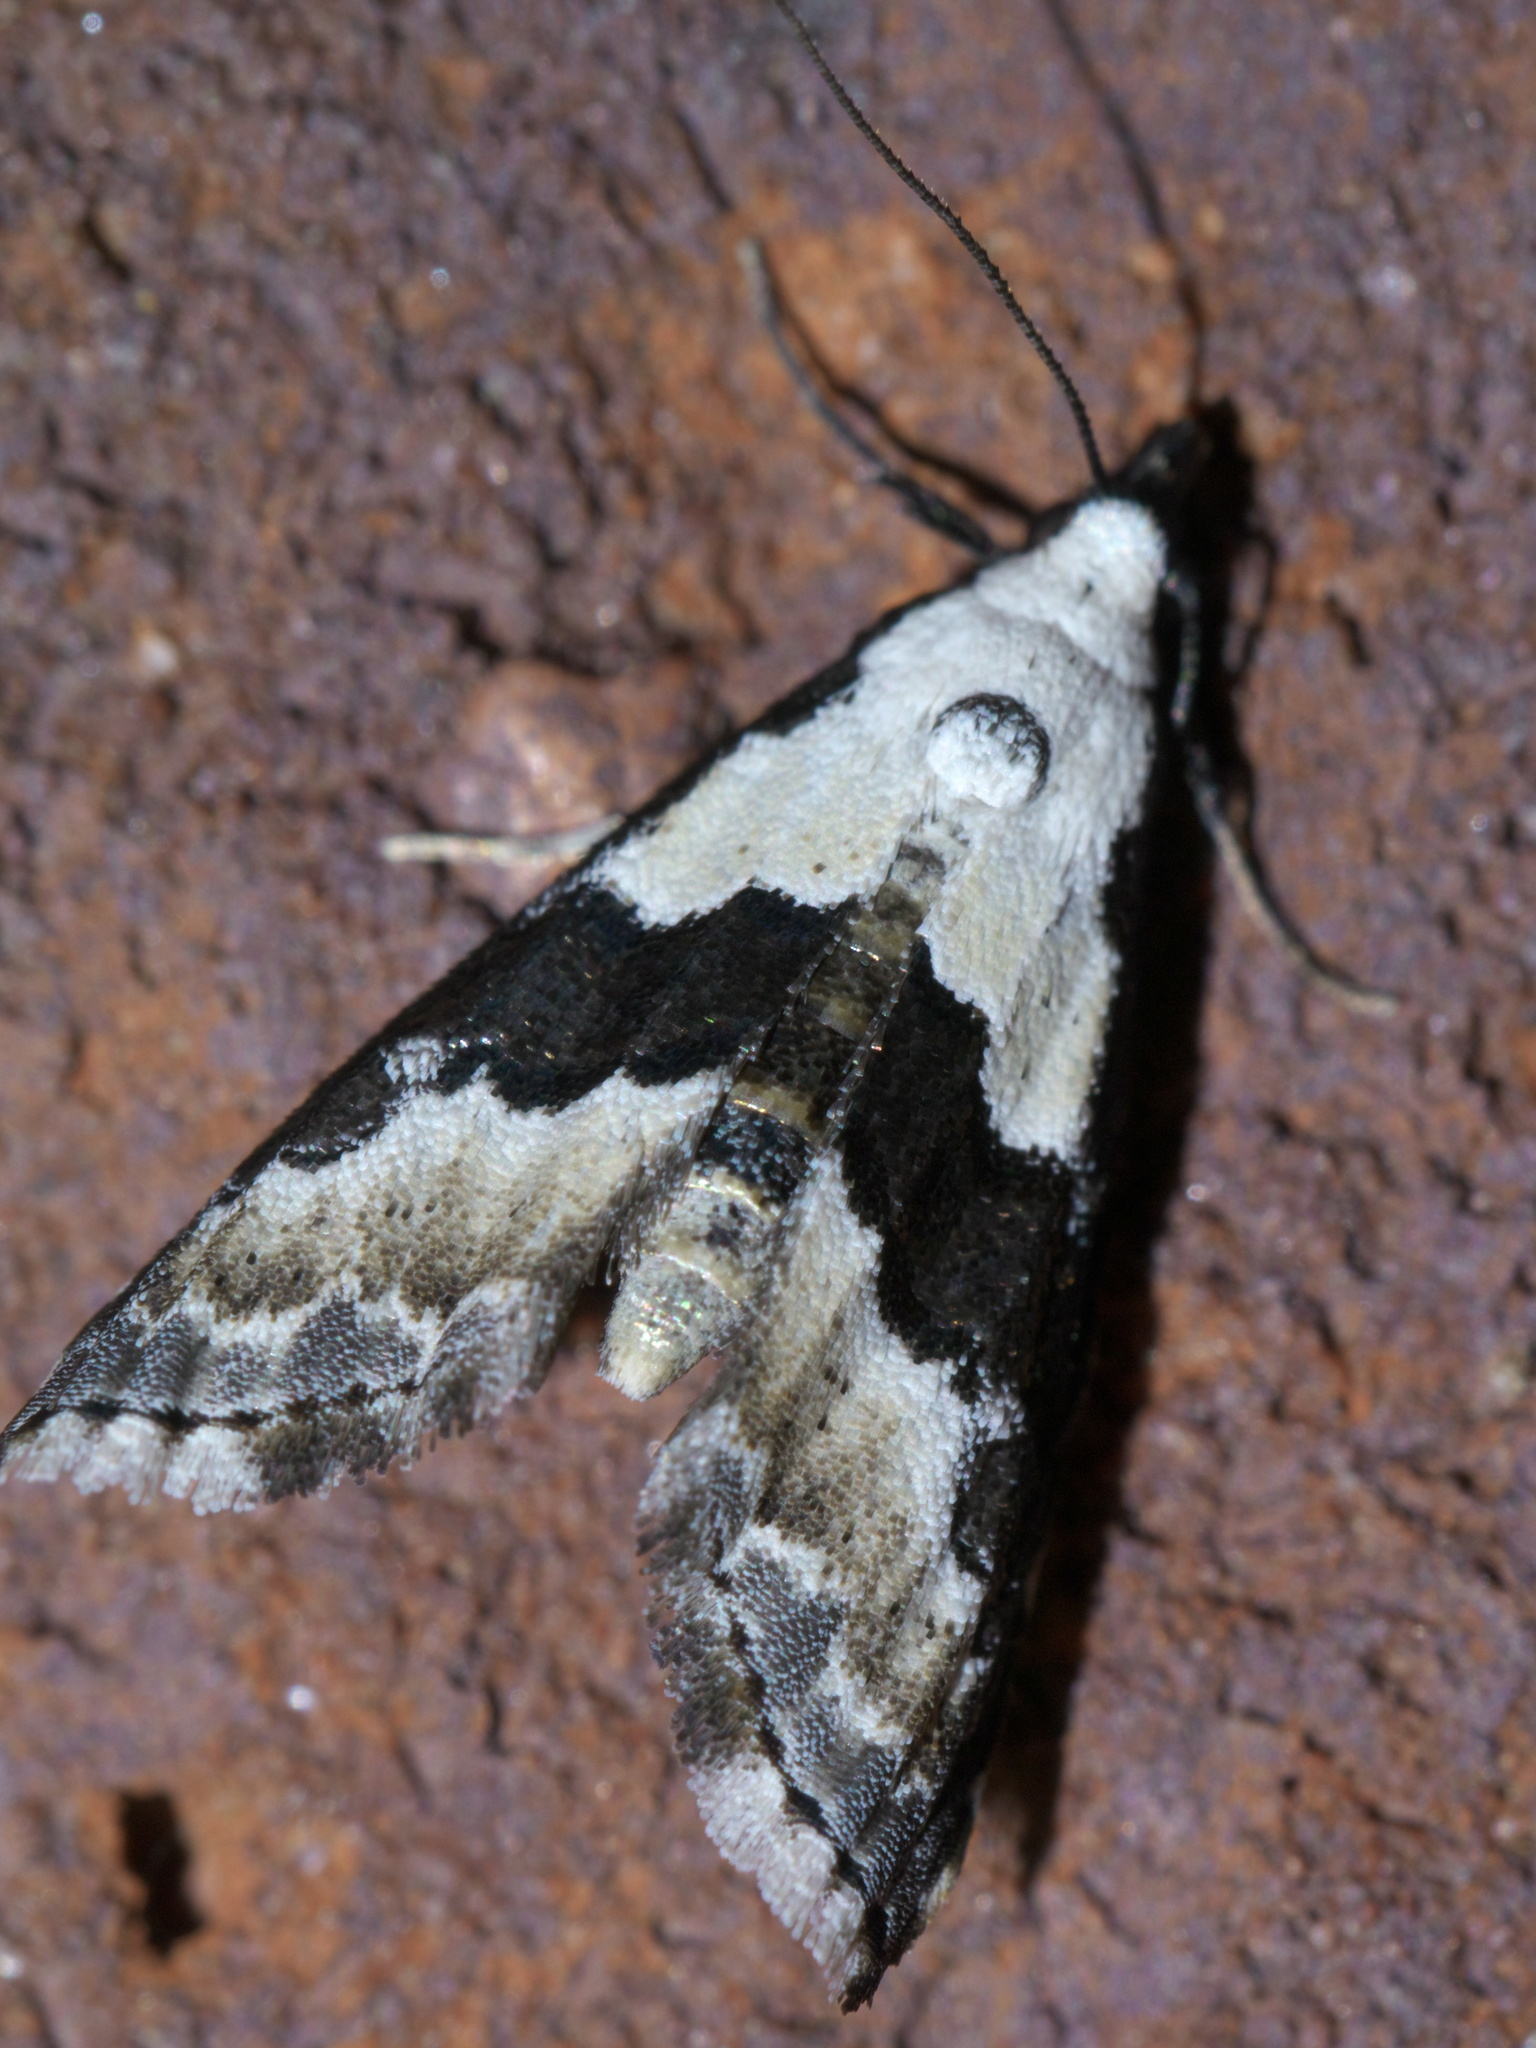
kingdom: Animalia
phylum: Arthropoda
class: Insecta
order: Lepidoptera
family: Noctuidae
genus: Nigetia
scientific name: Nigetia formosalis
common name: Thin-winged owlet
